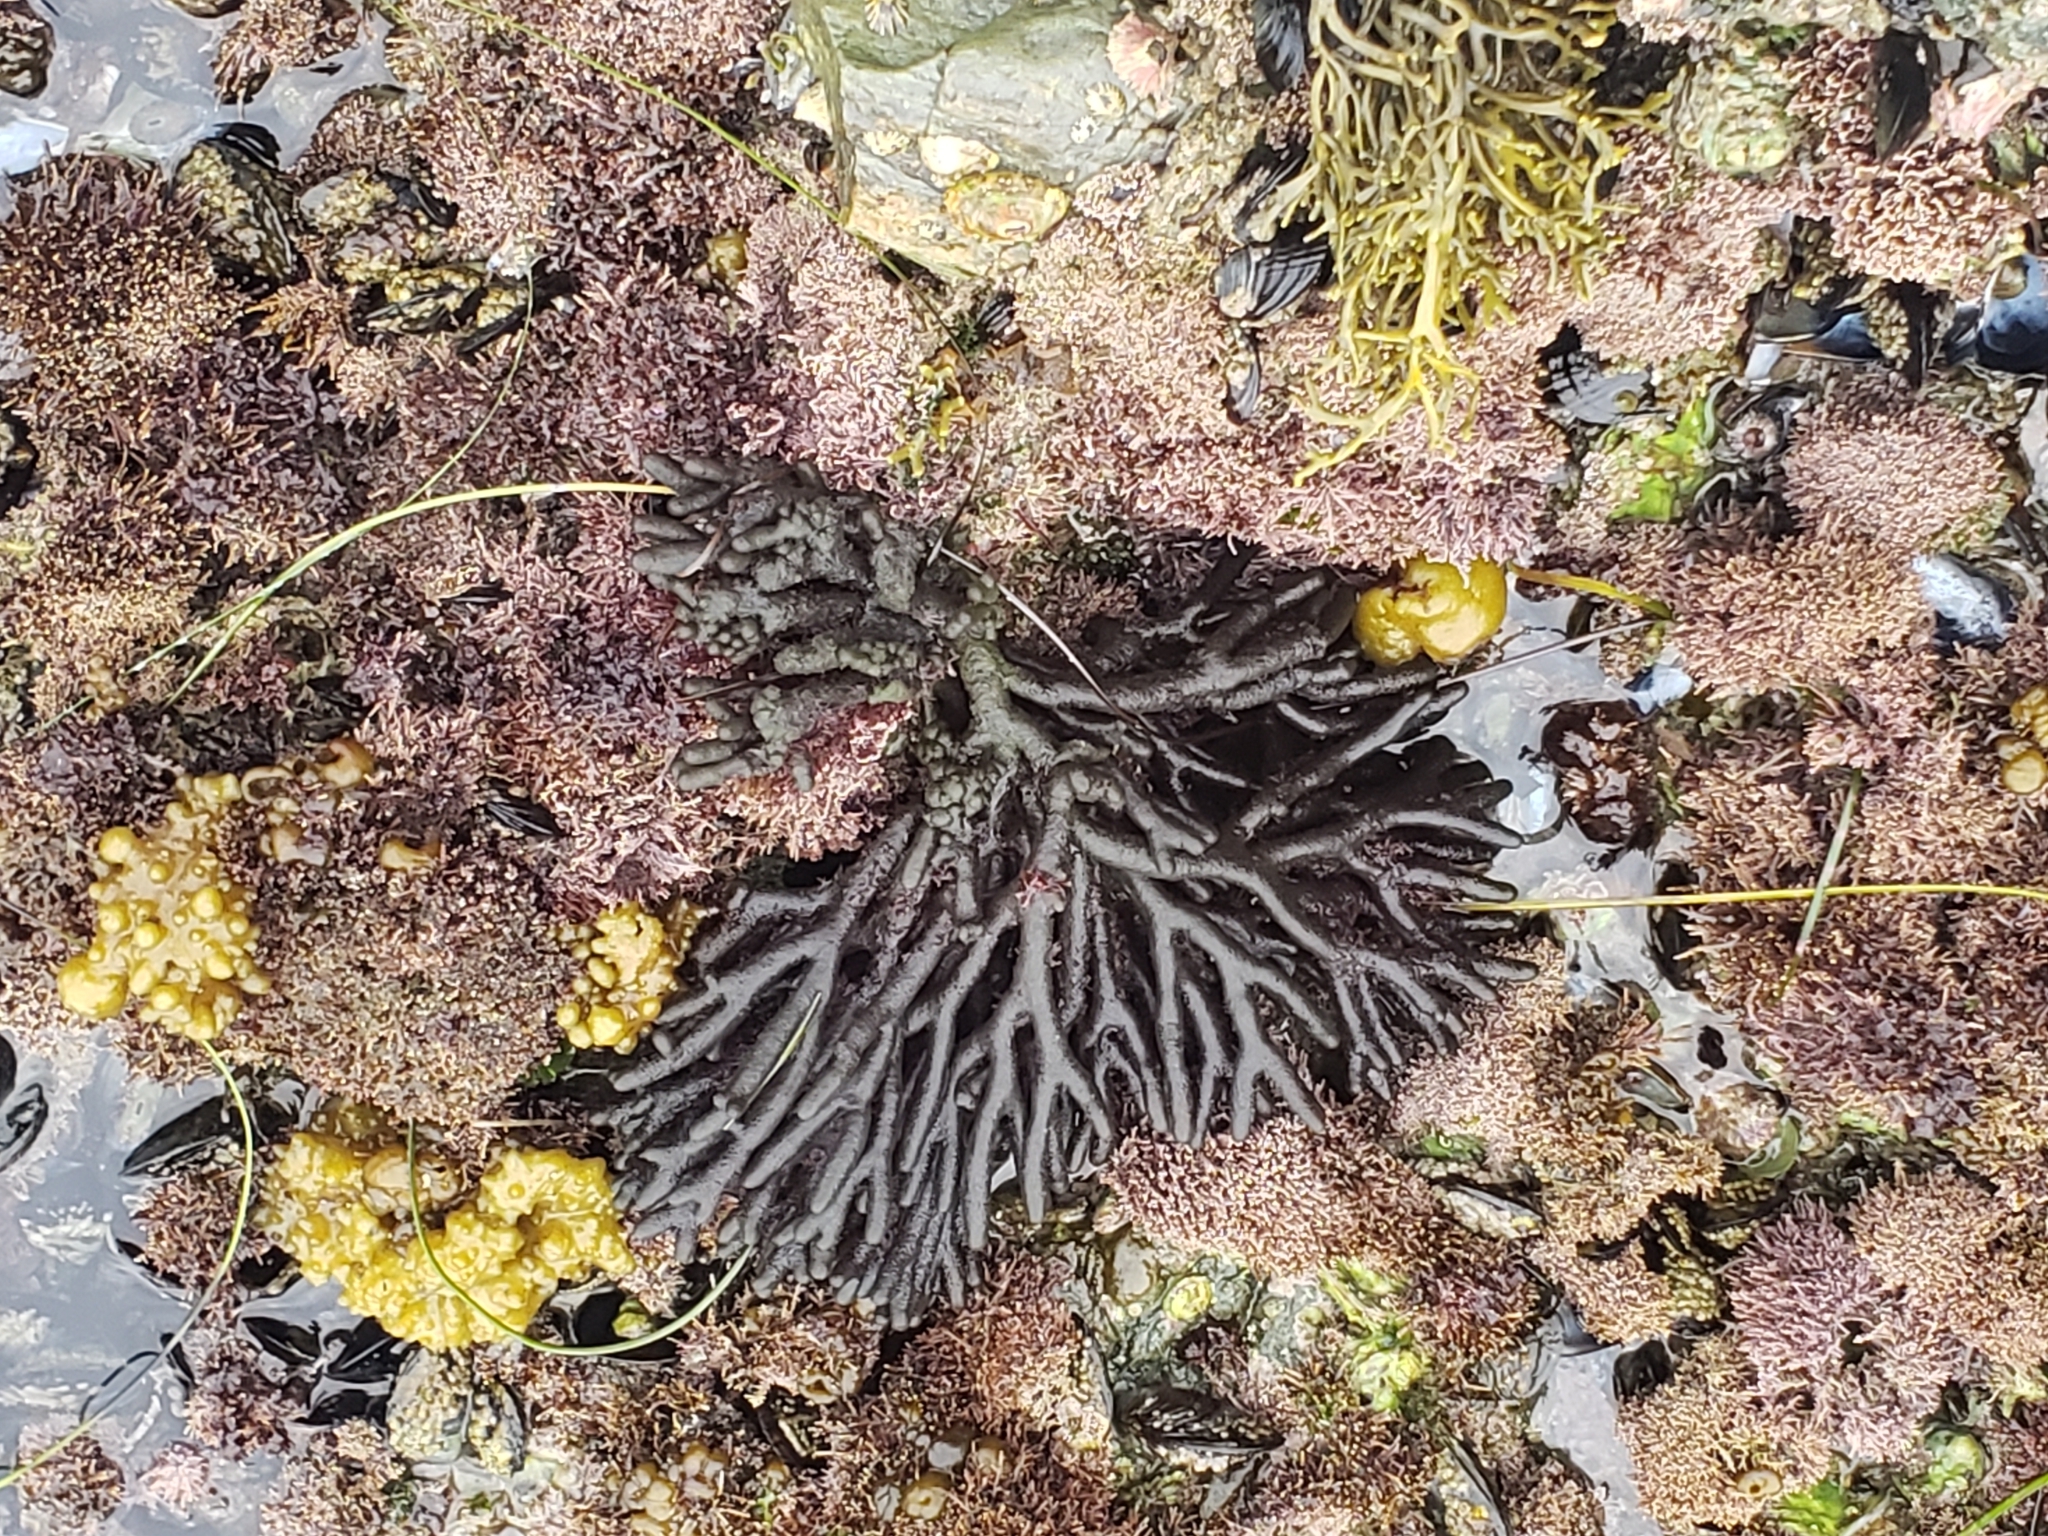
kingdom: Plantae
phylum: Chlorophyta
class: Ulvophyceae
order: Bryopsidales
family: Codiaceae
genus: Codium
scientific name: Codium fragile
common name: Dead man's fingers
